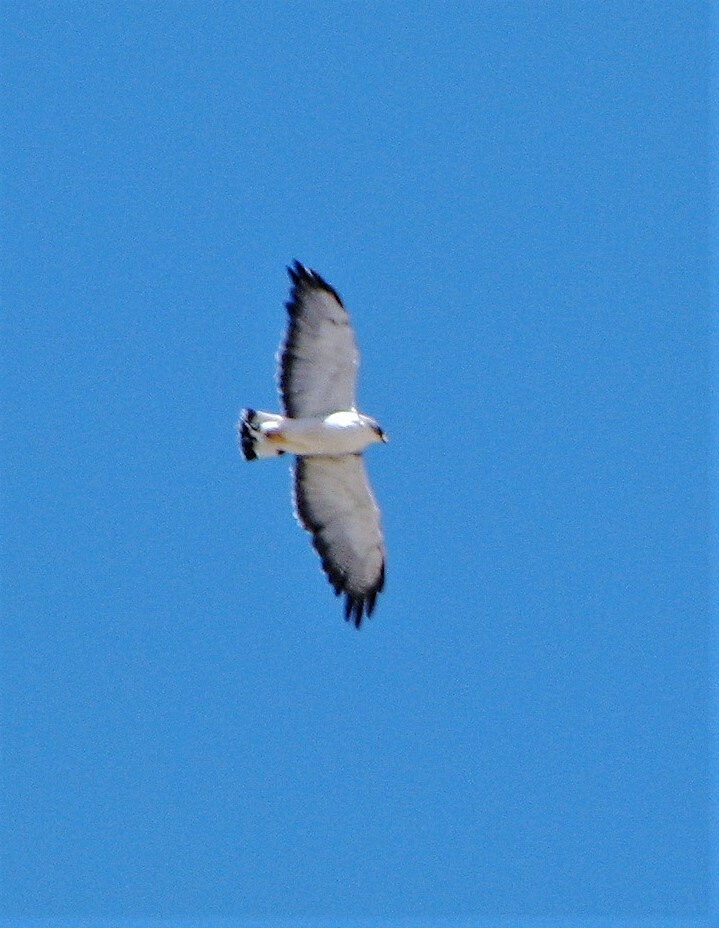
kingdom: Animalia
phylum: Chordata
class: Aves
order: Accipitriformes
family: Accipitridae
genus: Buteo
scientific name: Buteo polyosoma
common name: Variable hawk
